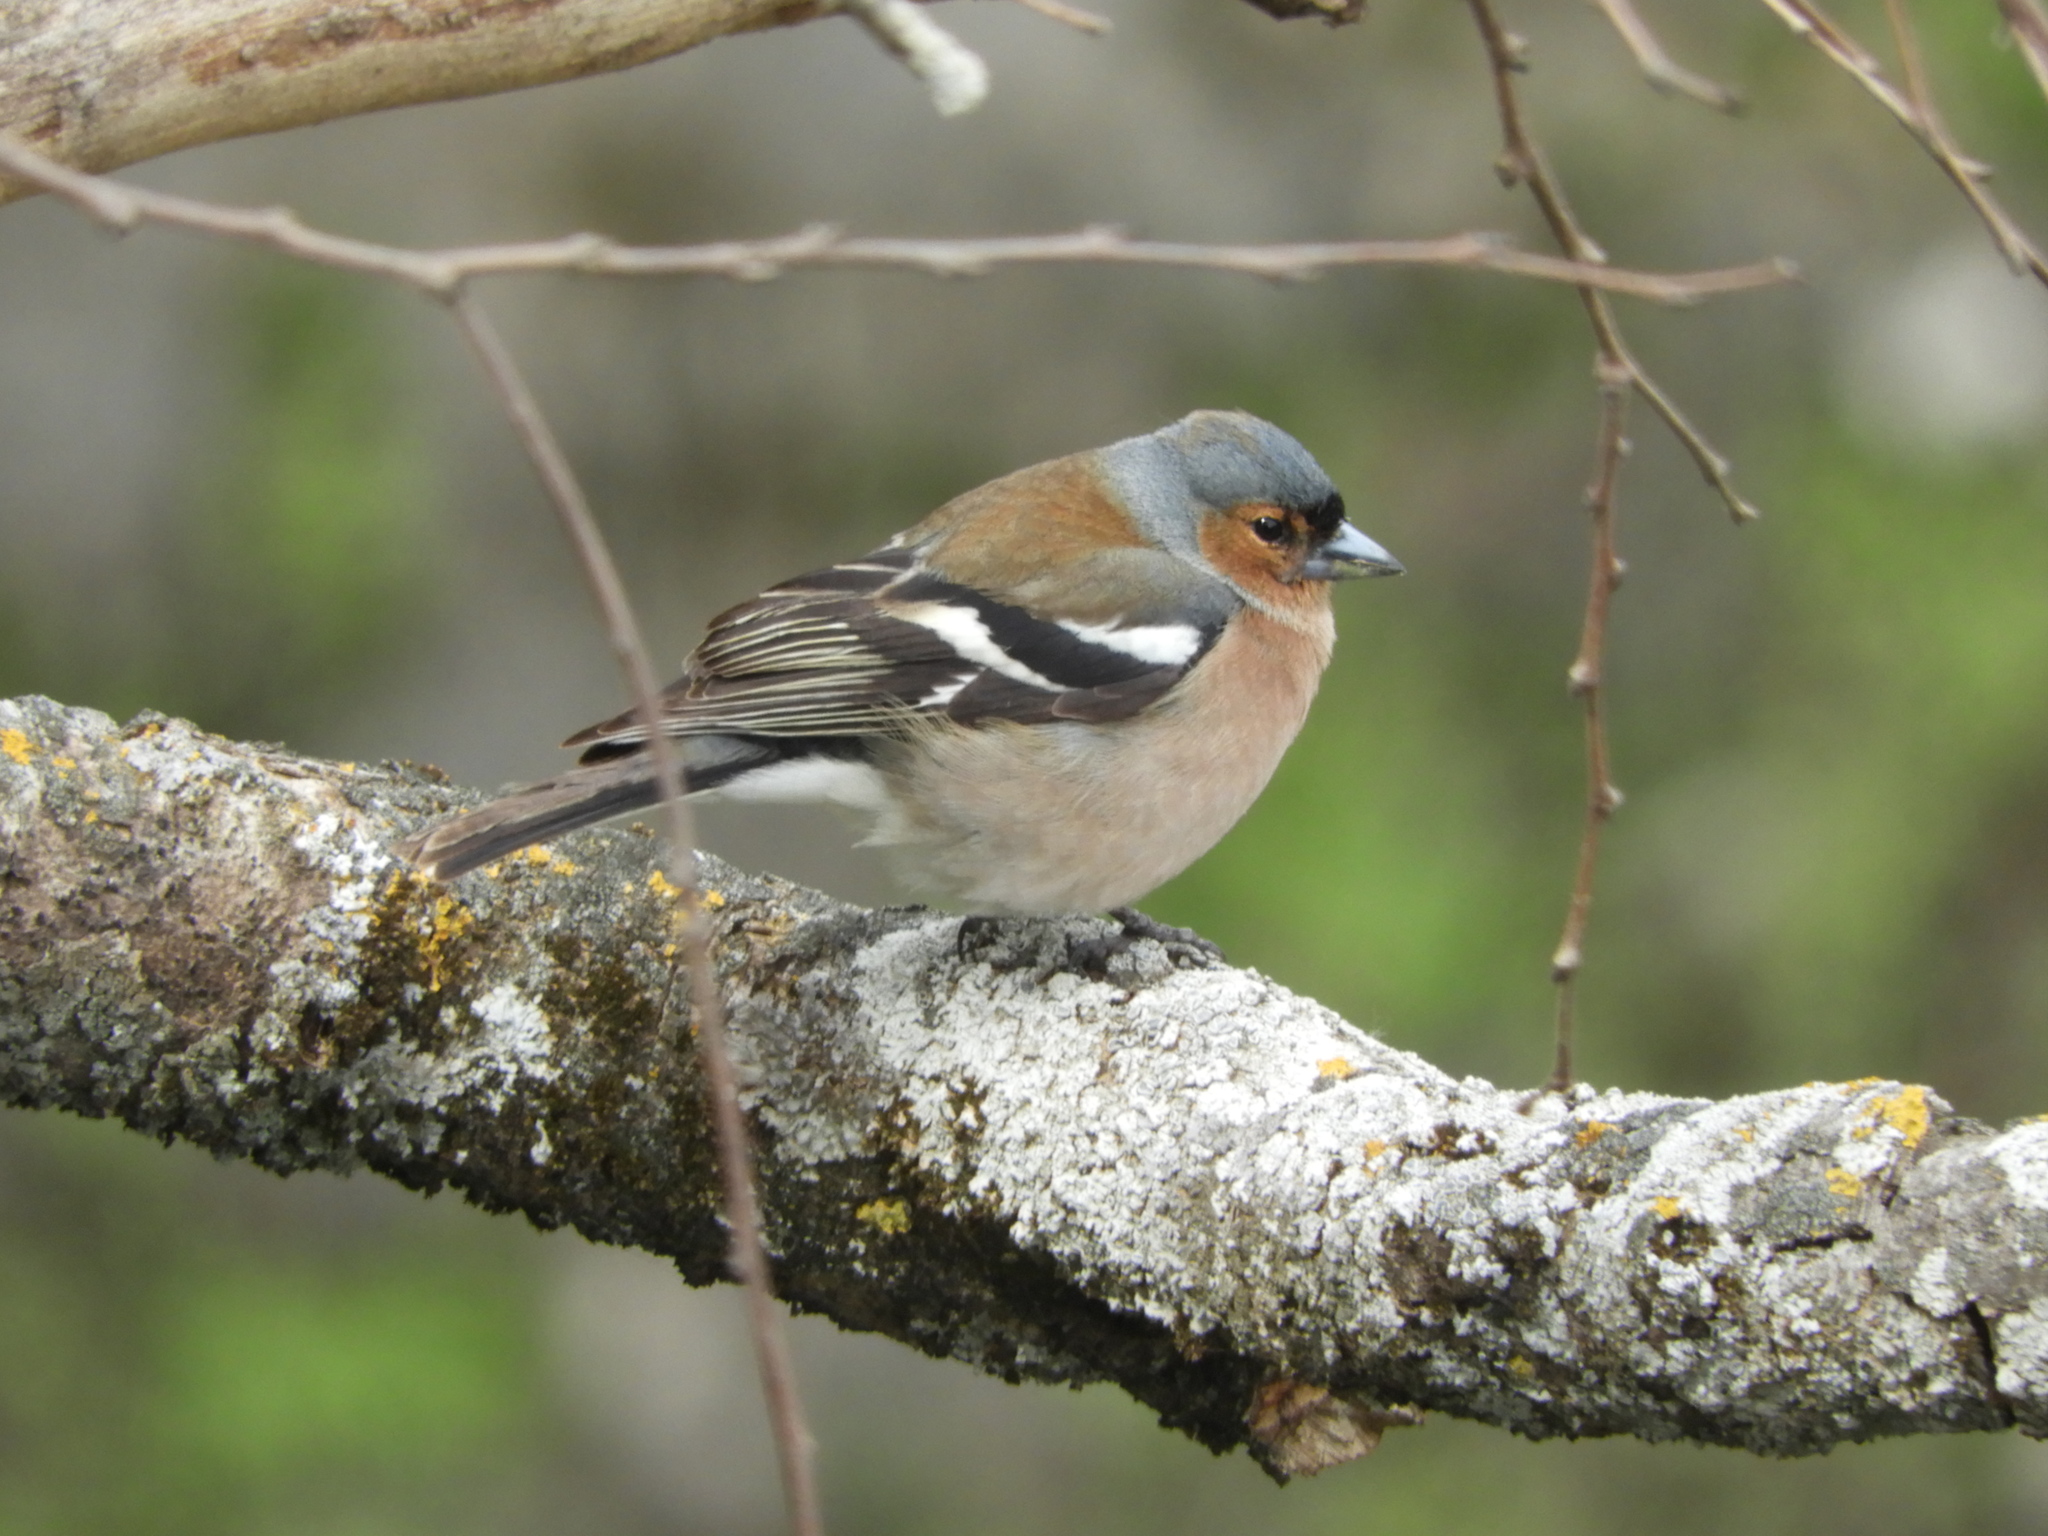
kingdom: Animalia
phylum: Chordata
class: Aves
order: Passeriformes
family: Fringillidae
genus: Fringilla
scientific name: Fringilla coelebs
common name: Common chaffinch
